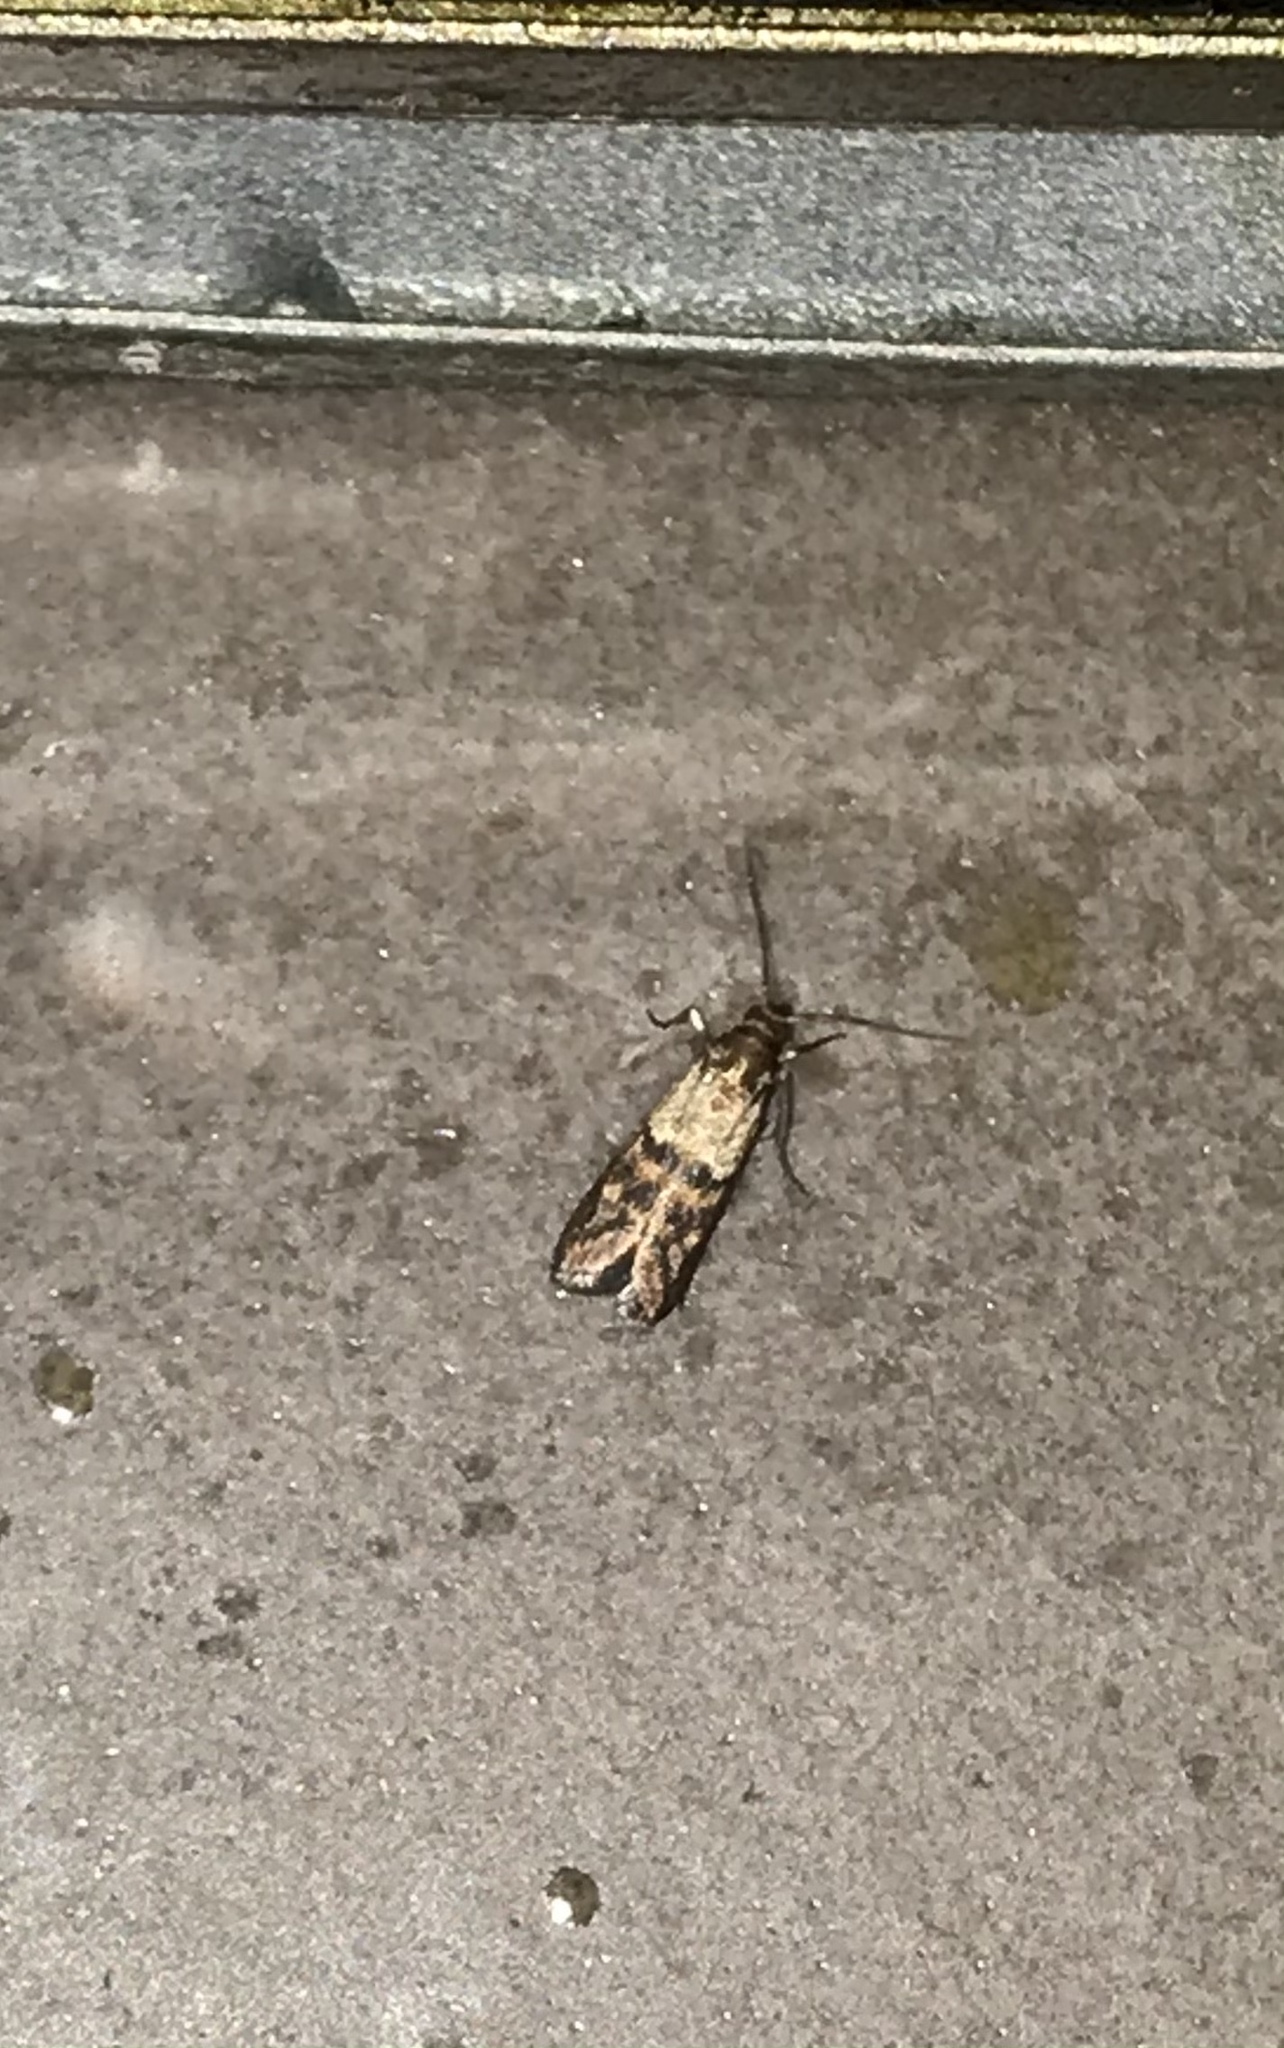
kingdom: Animalia
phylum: Arthropoda
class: Insecta
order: Lepidoptera
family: Pyralidae
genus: Plodia
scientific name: Plodia interpunctella
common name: Indian meal moth
